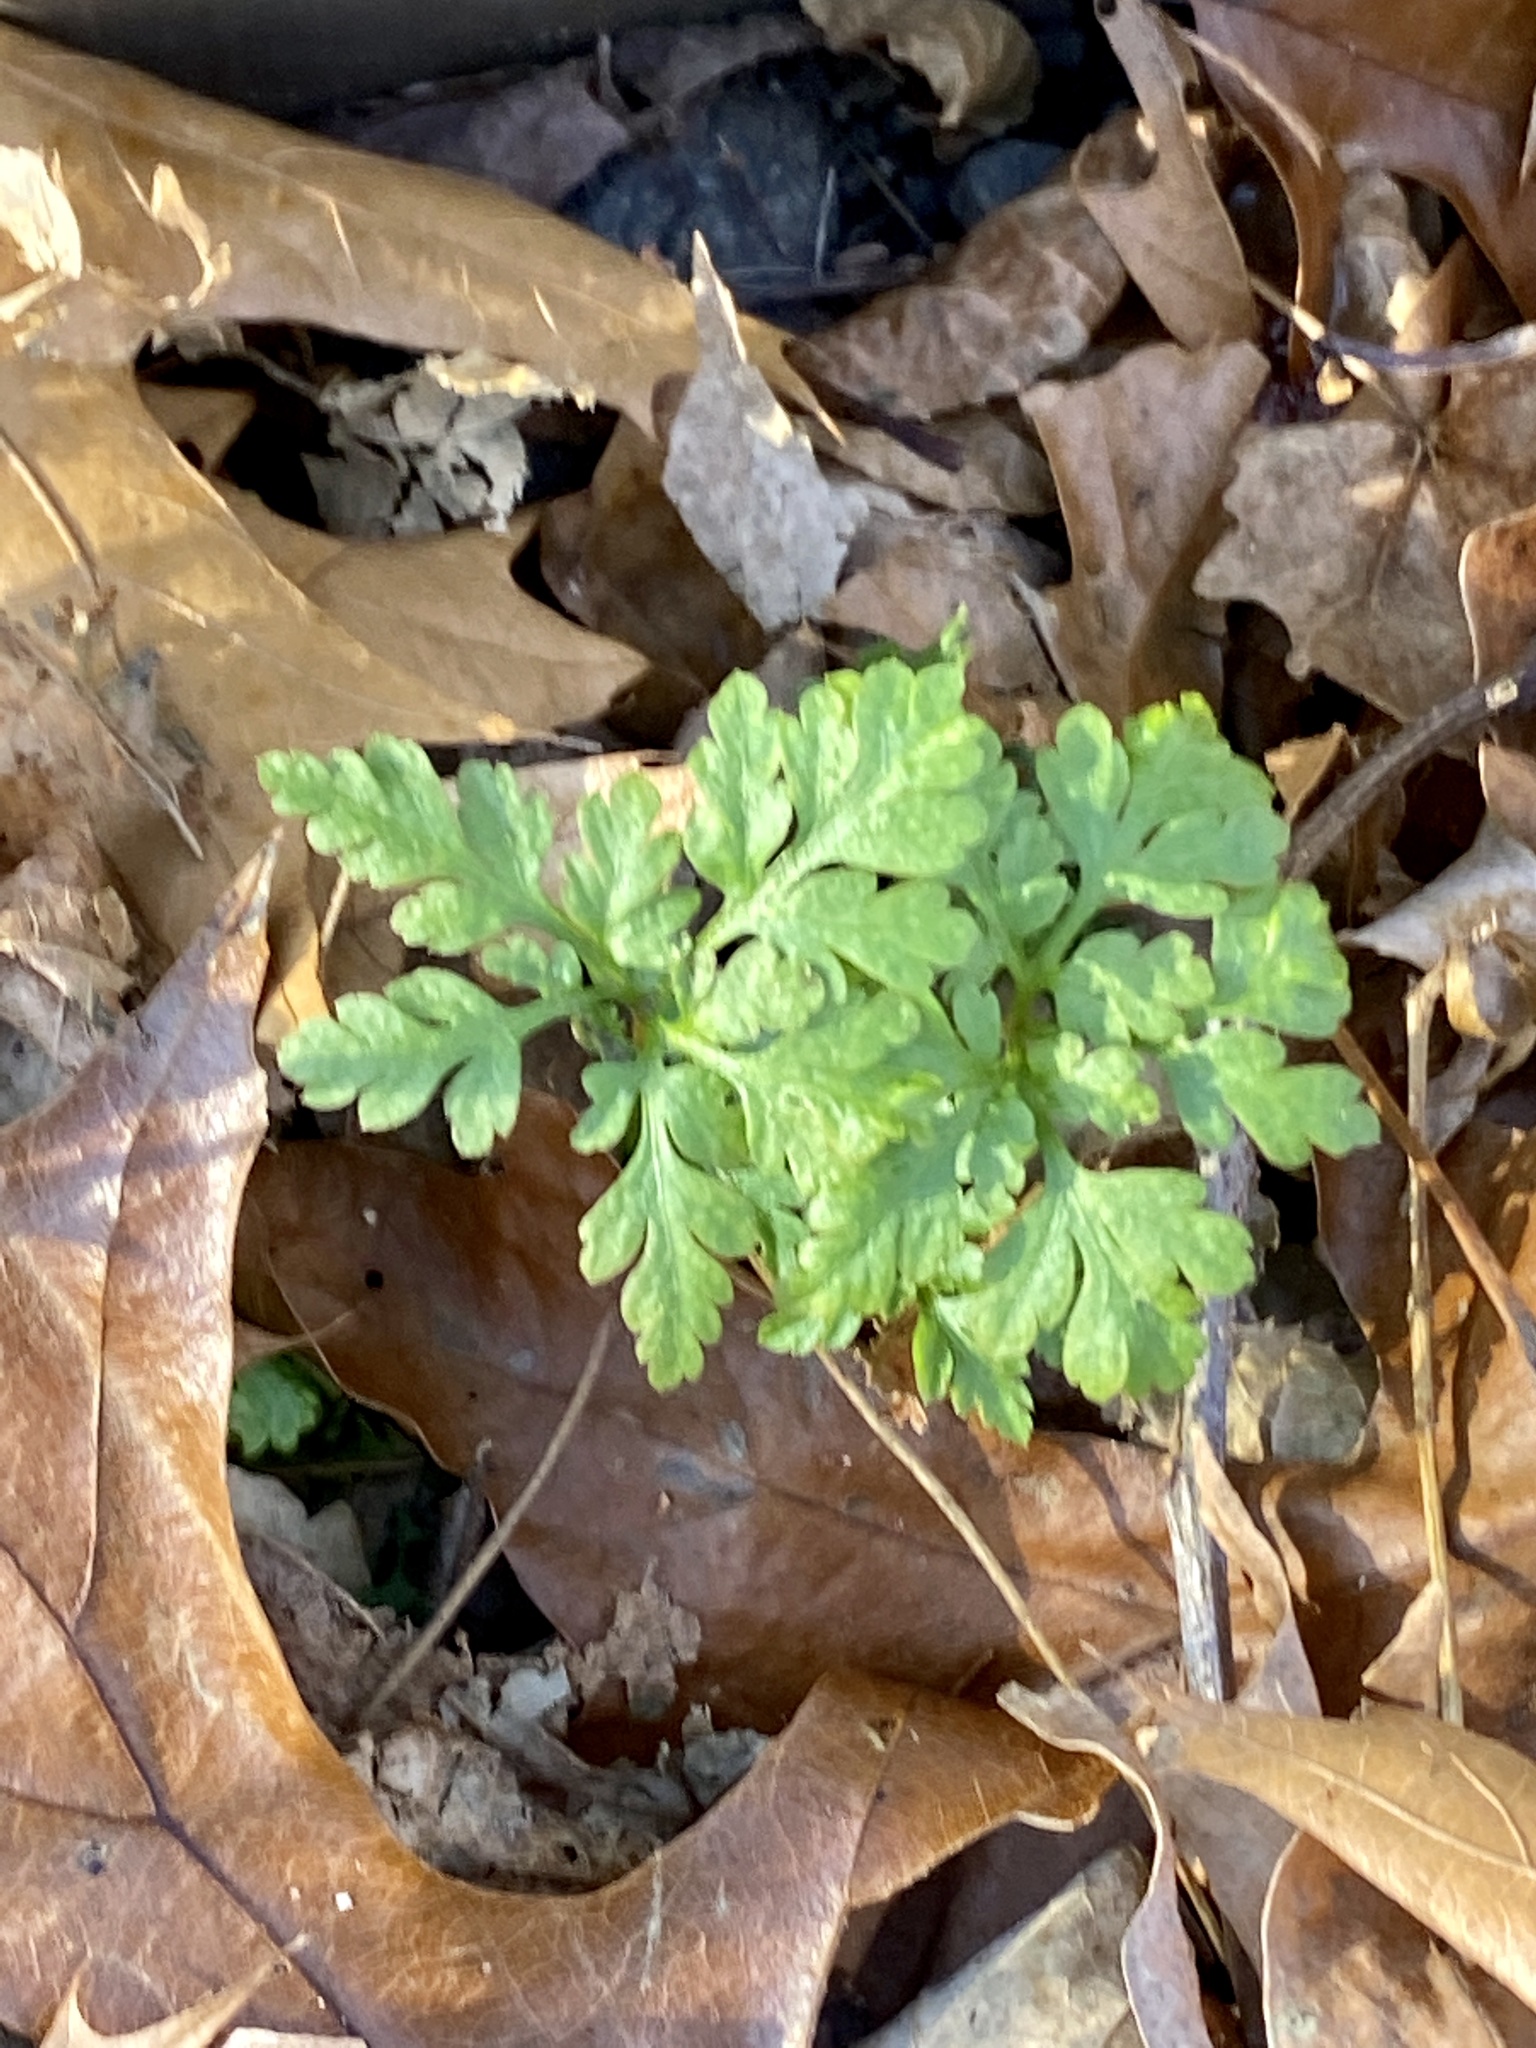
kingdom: Plantae
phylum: Tracheophyta
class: Magnoliopsida
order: Geraniales
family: Geraniaceae
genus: Geranium
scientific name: Geranium robertianum
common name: Herb-robert
